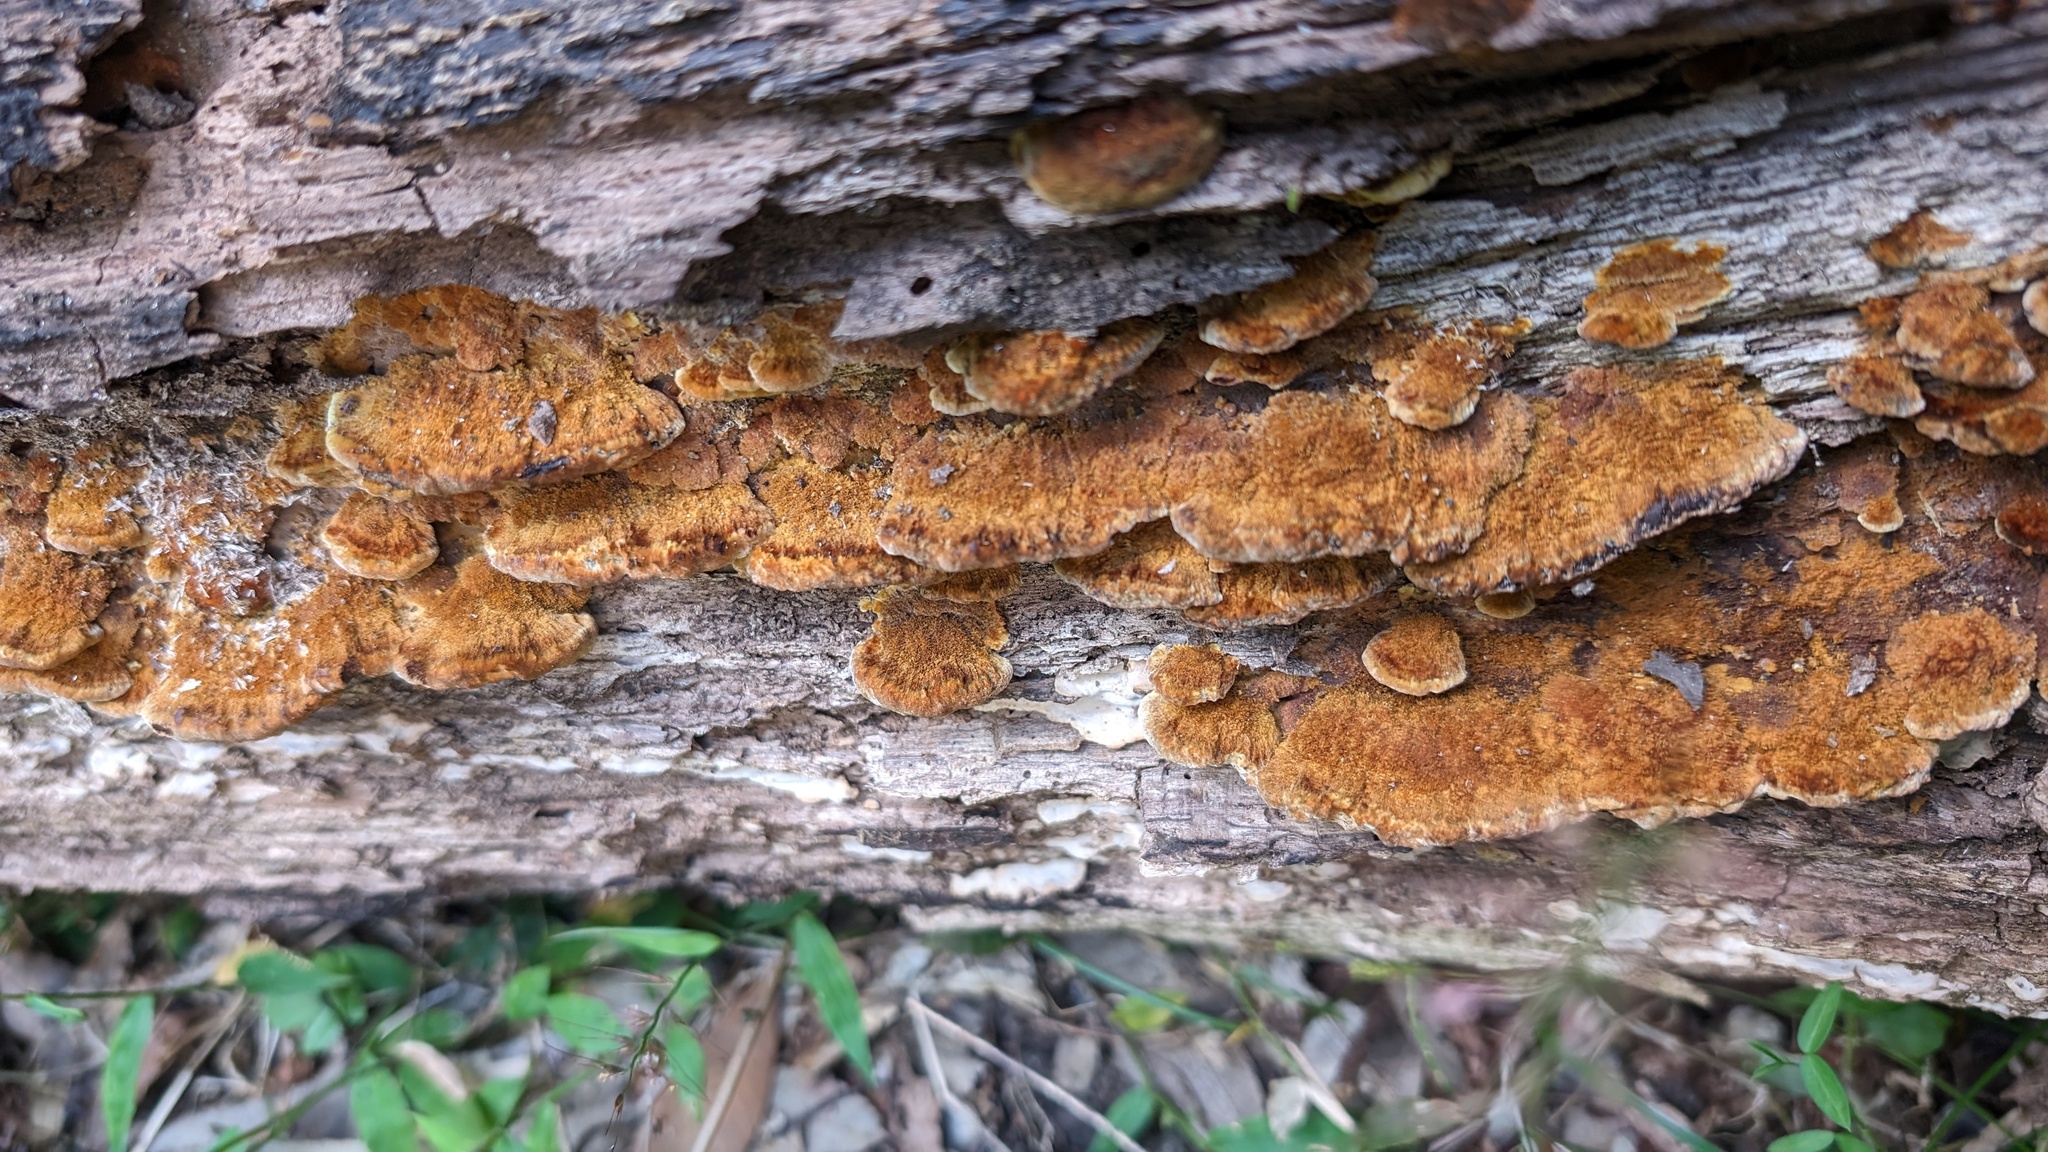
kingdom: Fungi
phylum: Basidiomycota
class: Agaricomycetes
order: Hymenochaetales
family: Hymenochaetaceae
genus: Phellinus
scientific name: Phellinus gilvus
